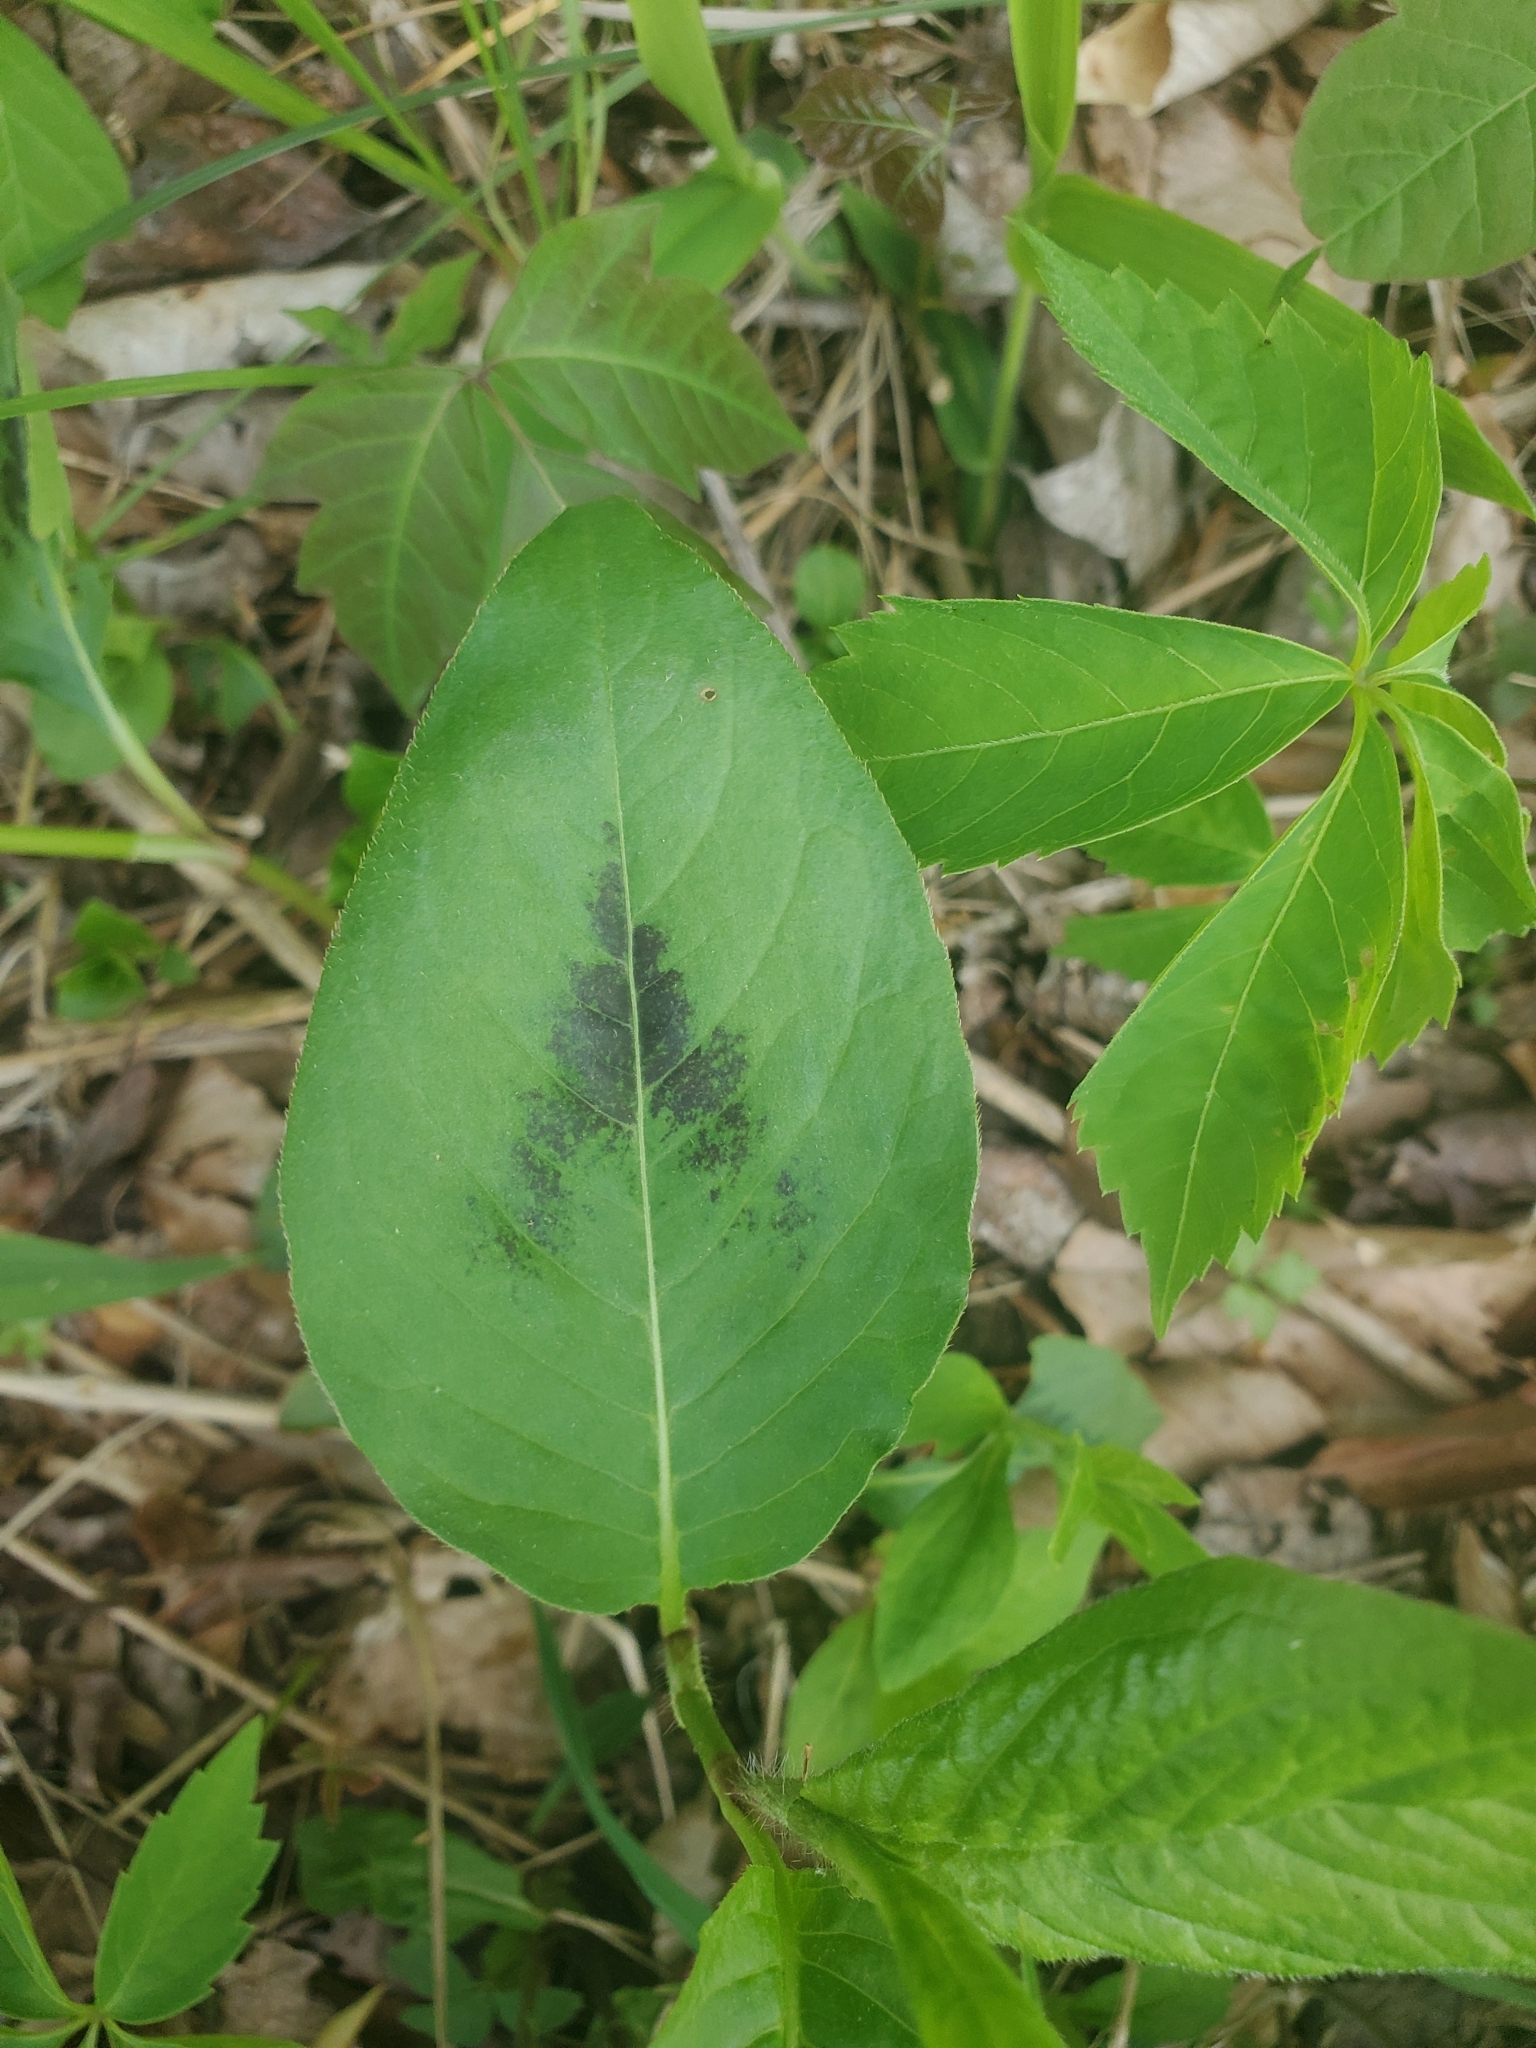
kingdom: Plantae
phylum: Tracheophyta
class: Magnoliopsida
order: Caryophyllales
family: Polygonaceae
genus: Persicaria
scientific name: Persicaria virginiana
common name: Jumpseed
